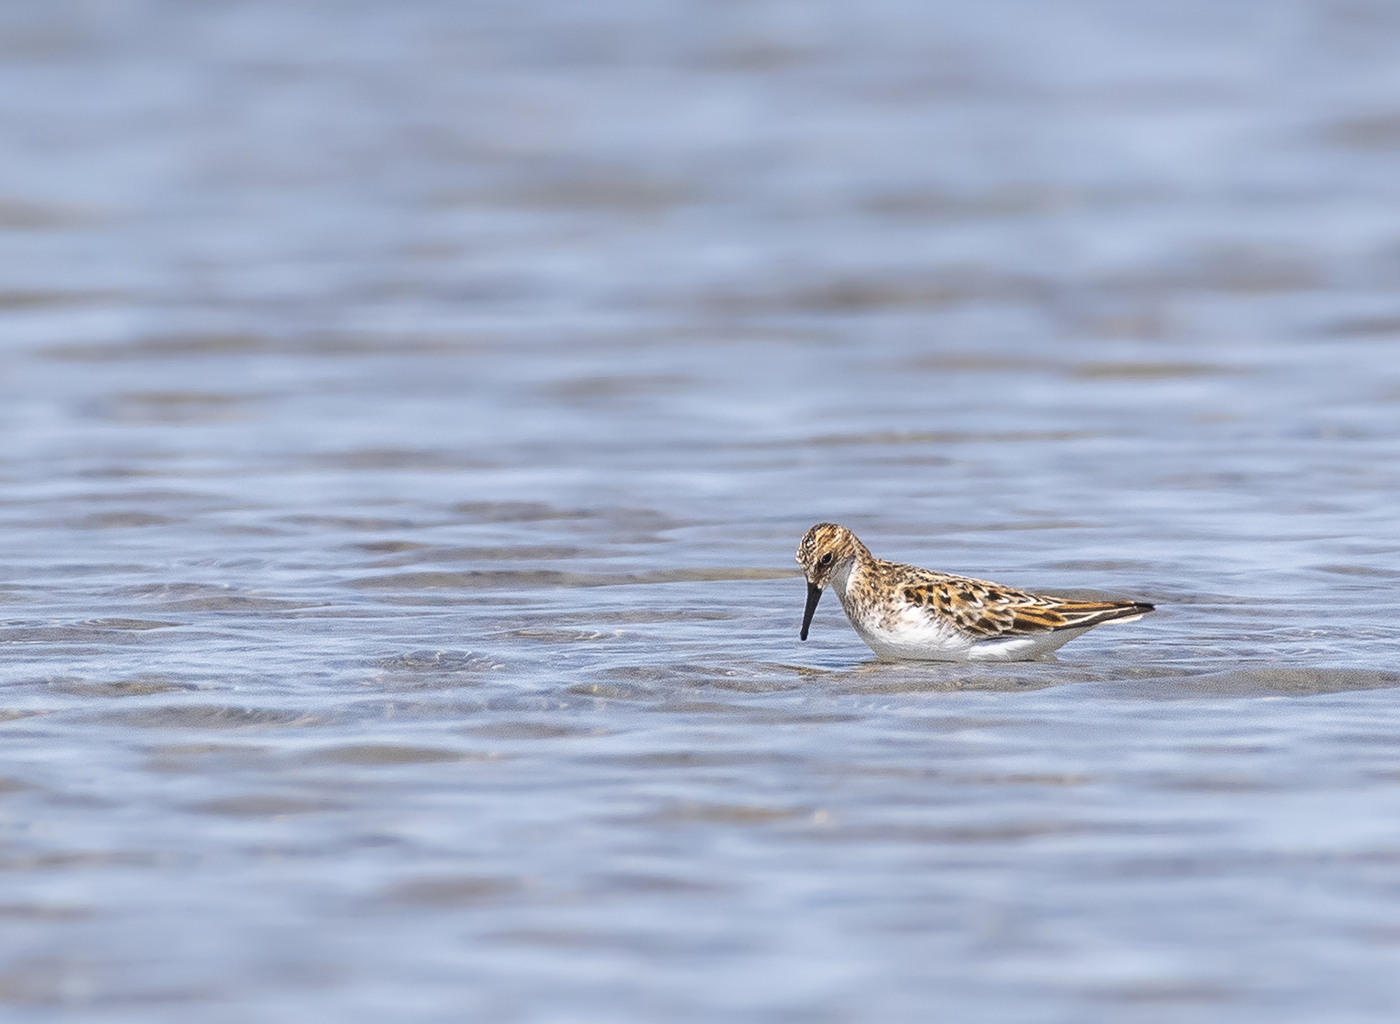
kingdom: Animalia
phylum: Chordata
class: Aves
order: Charadriiformes
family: Scolopacidae
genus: Calidris
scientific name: Calidris minuta
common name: Little stint
